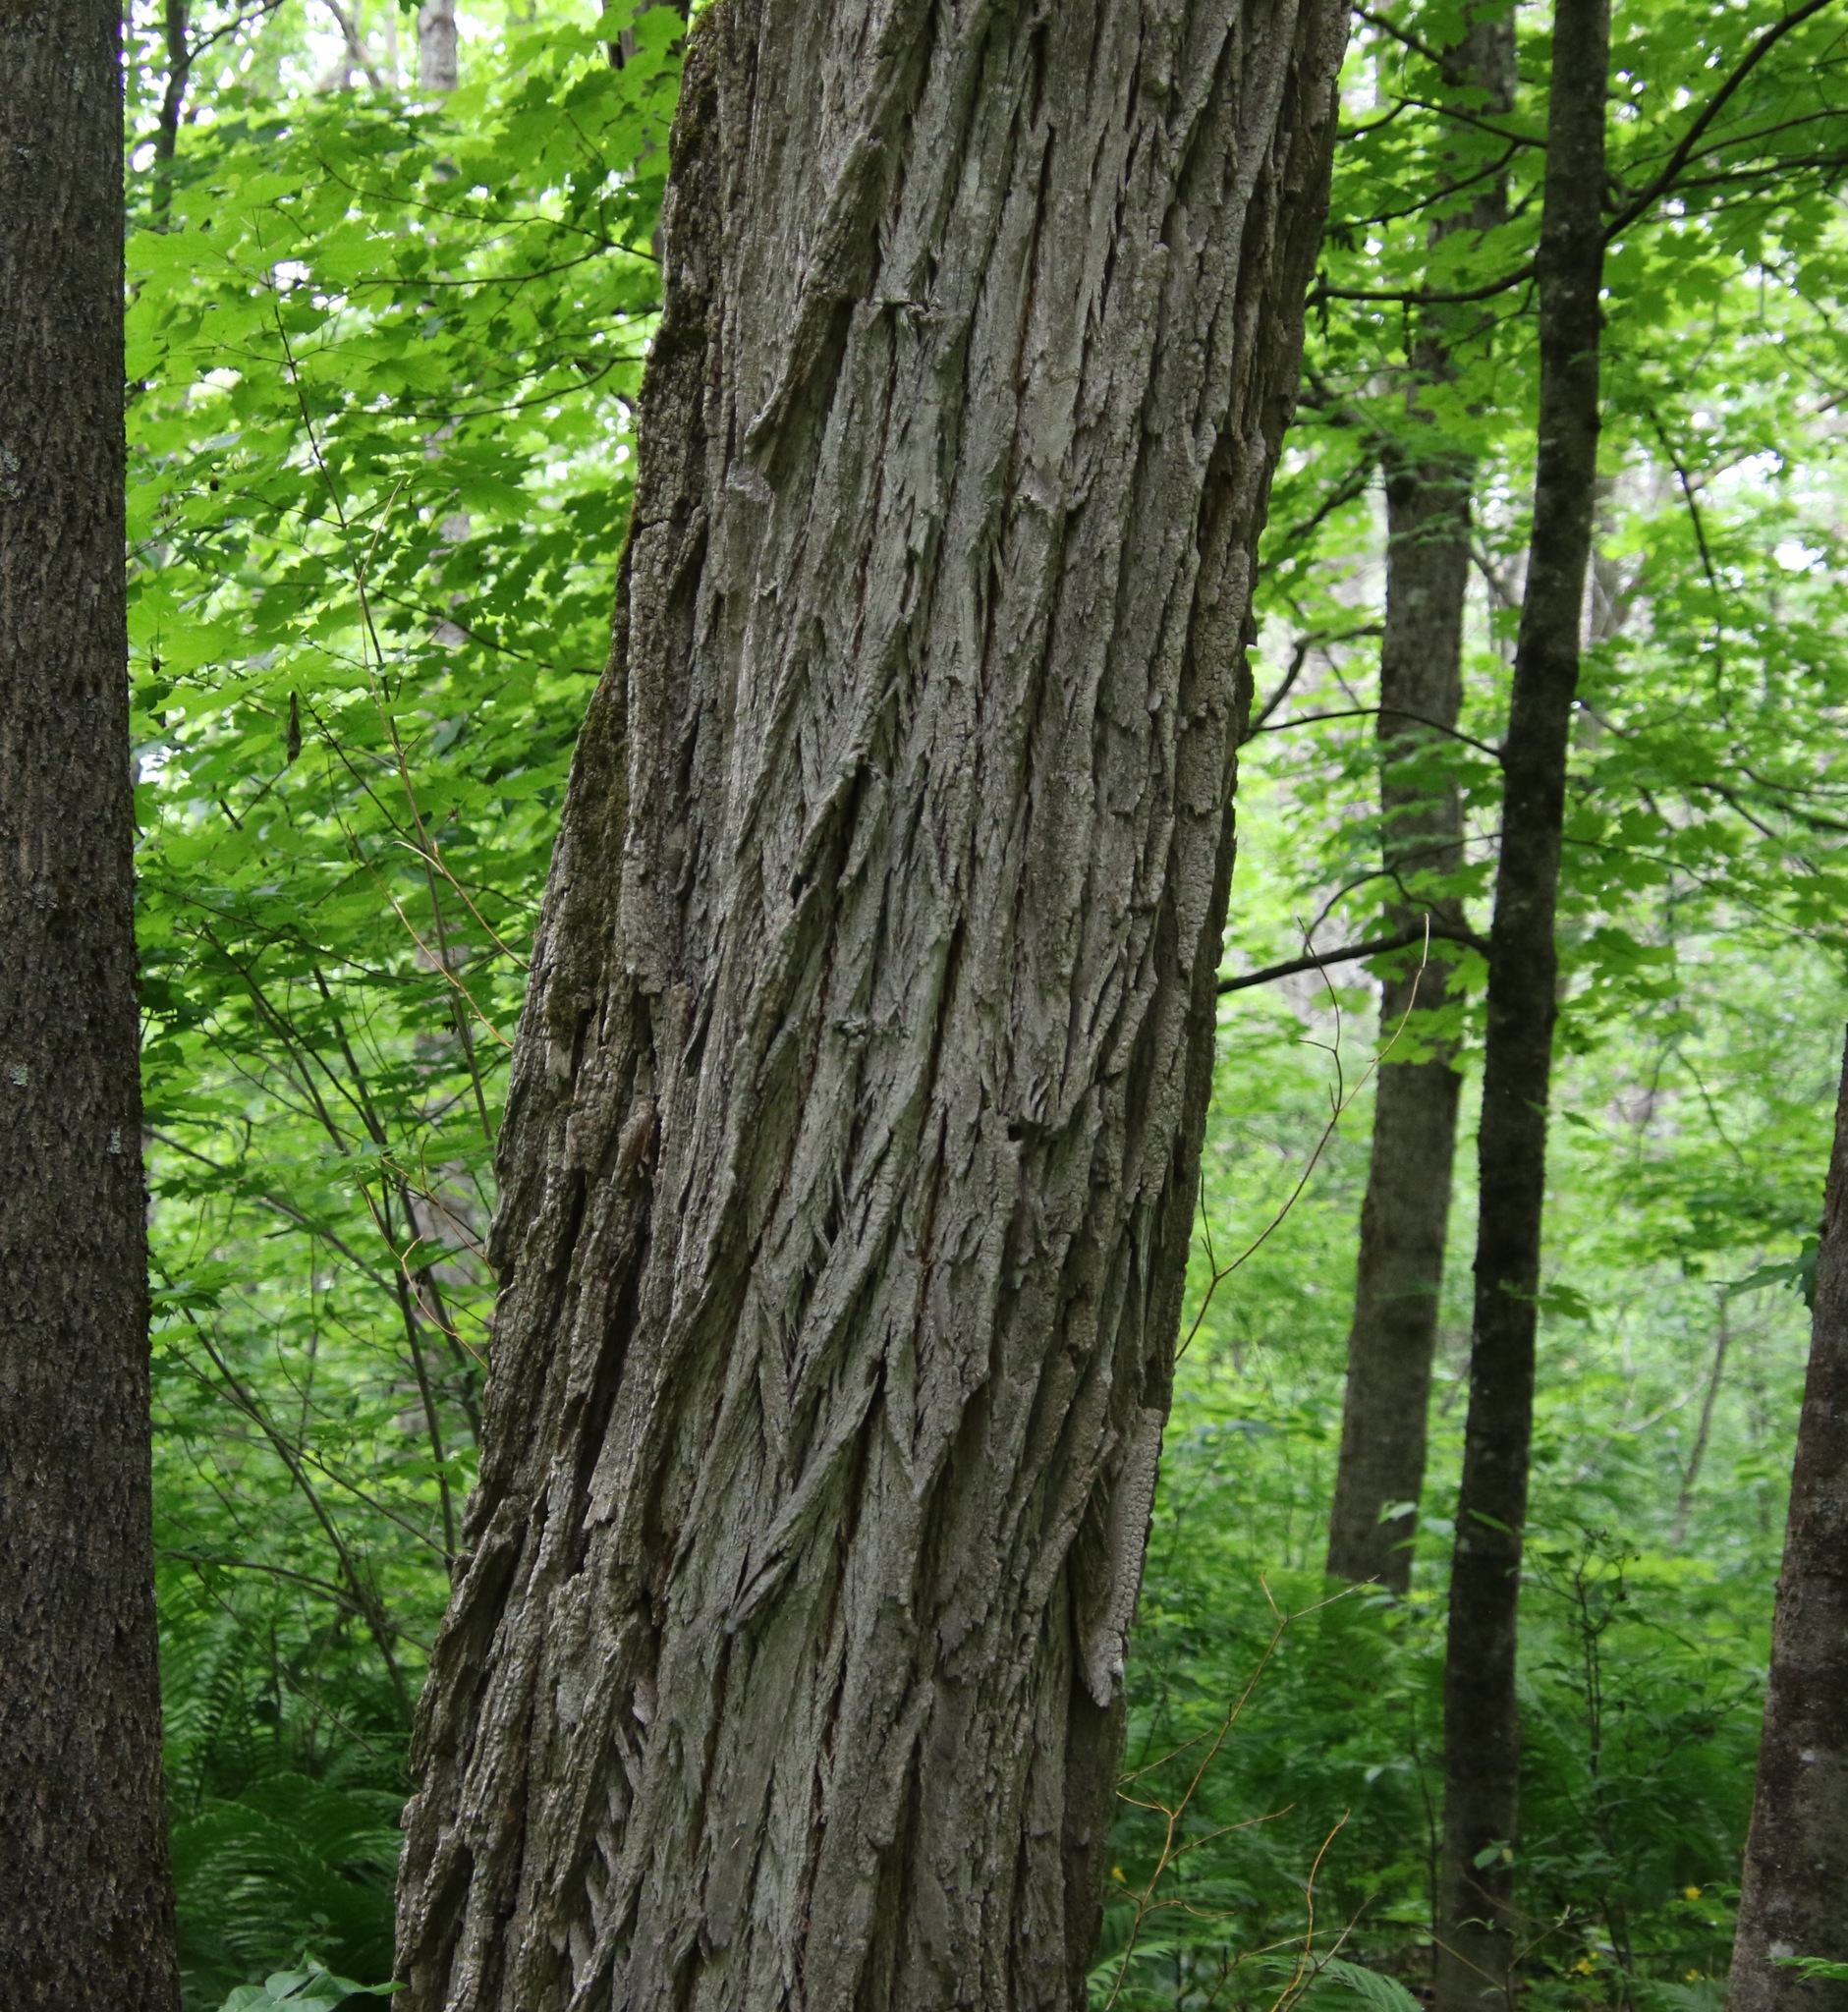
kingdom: Plantae
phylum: Tracheophyta
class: Magnoliopsida
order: Fabales
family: Fabaceae
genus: Robinia
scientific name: Robinia pseudoacacia
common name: Black locust
